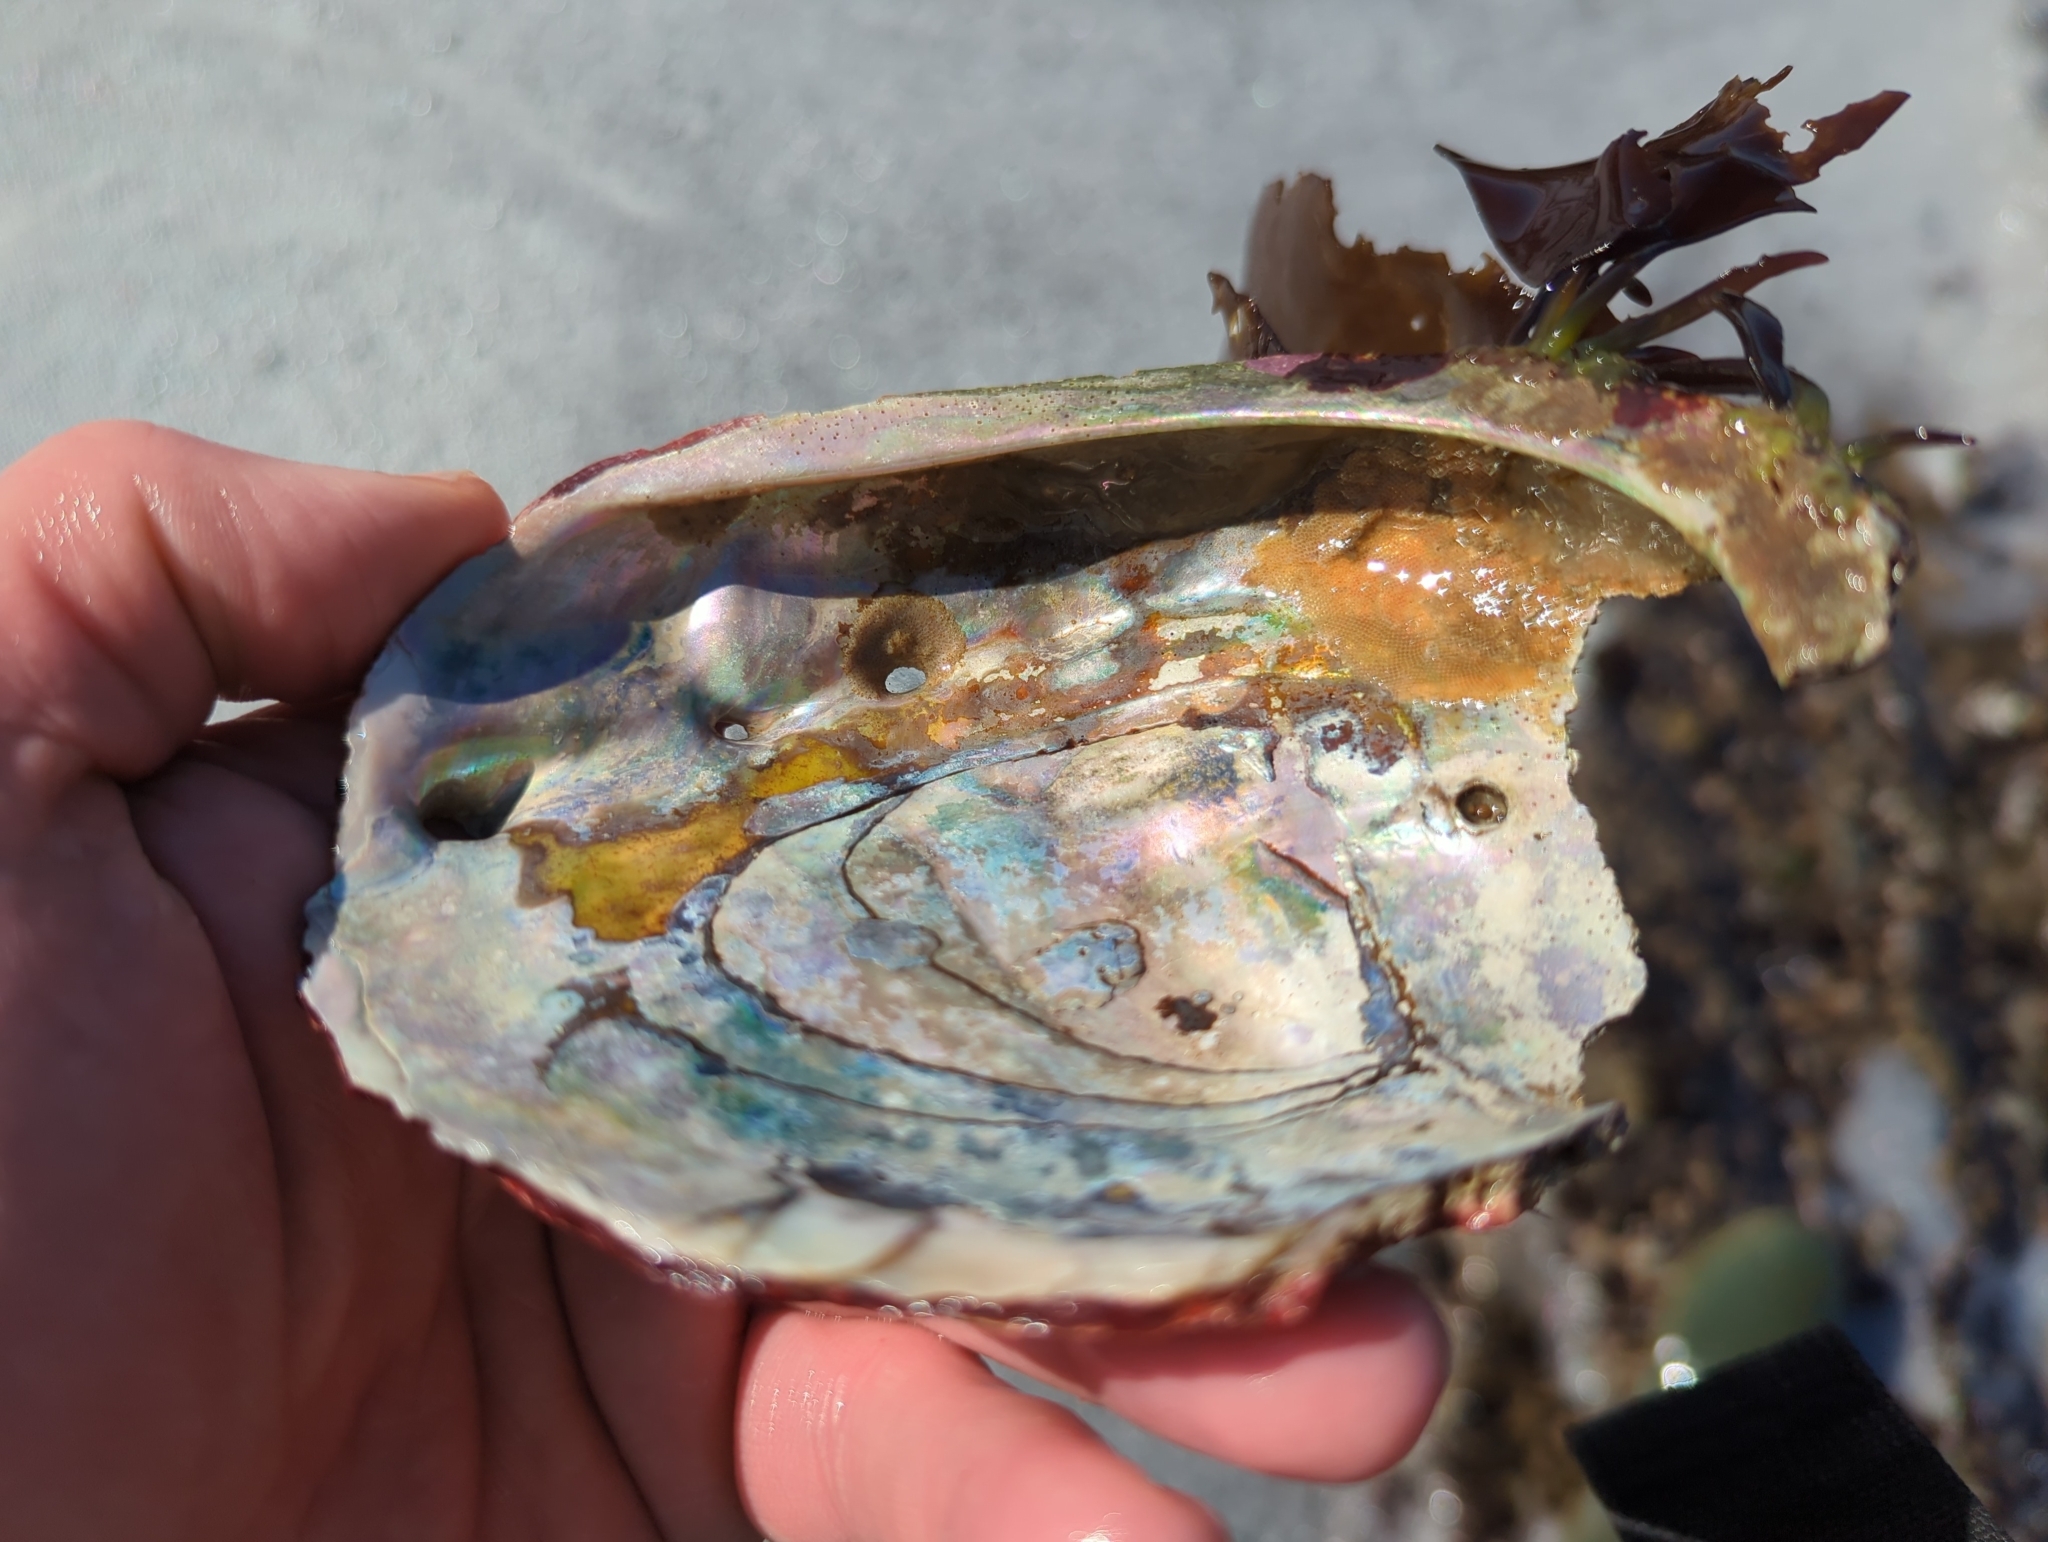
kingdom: Animalia
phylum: Mollusca
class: Gastropoda
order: Lepetellida
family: Haliotidae
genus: Haliotis
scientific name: Haliotis rufescens
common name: Red abalone
